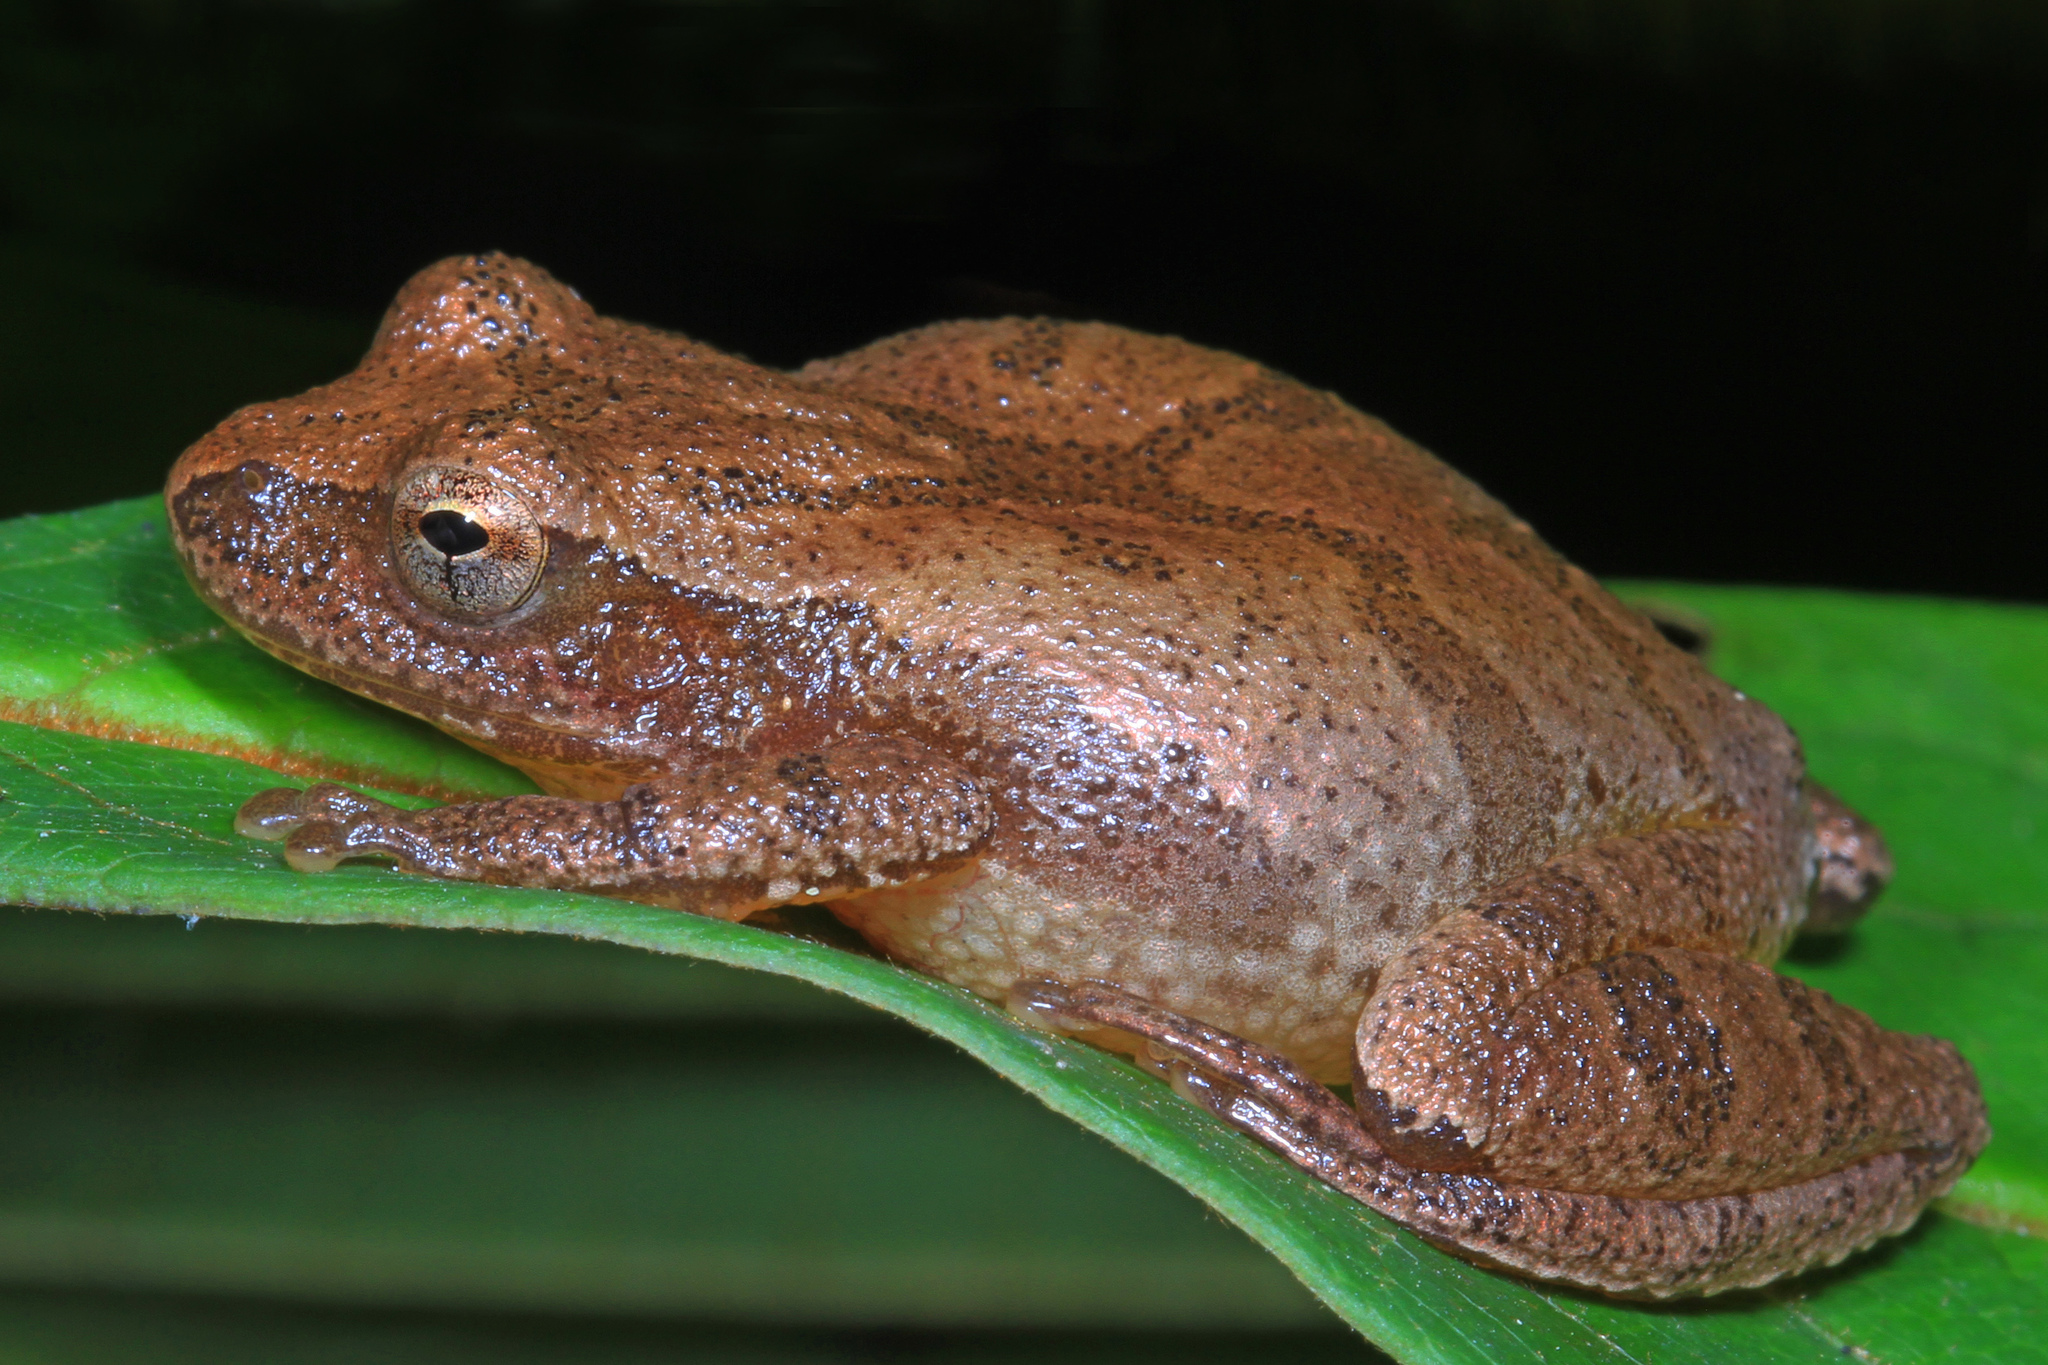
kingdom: Animalia
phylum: Chordata
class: Amphibia
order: Anura
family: Hylidae
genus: Pseudacris
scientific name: Pseudacris crucifer
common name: Spring peeper
